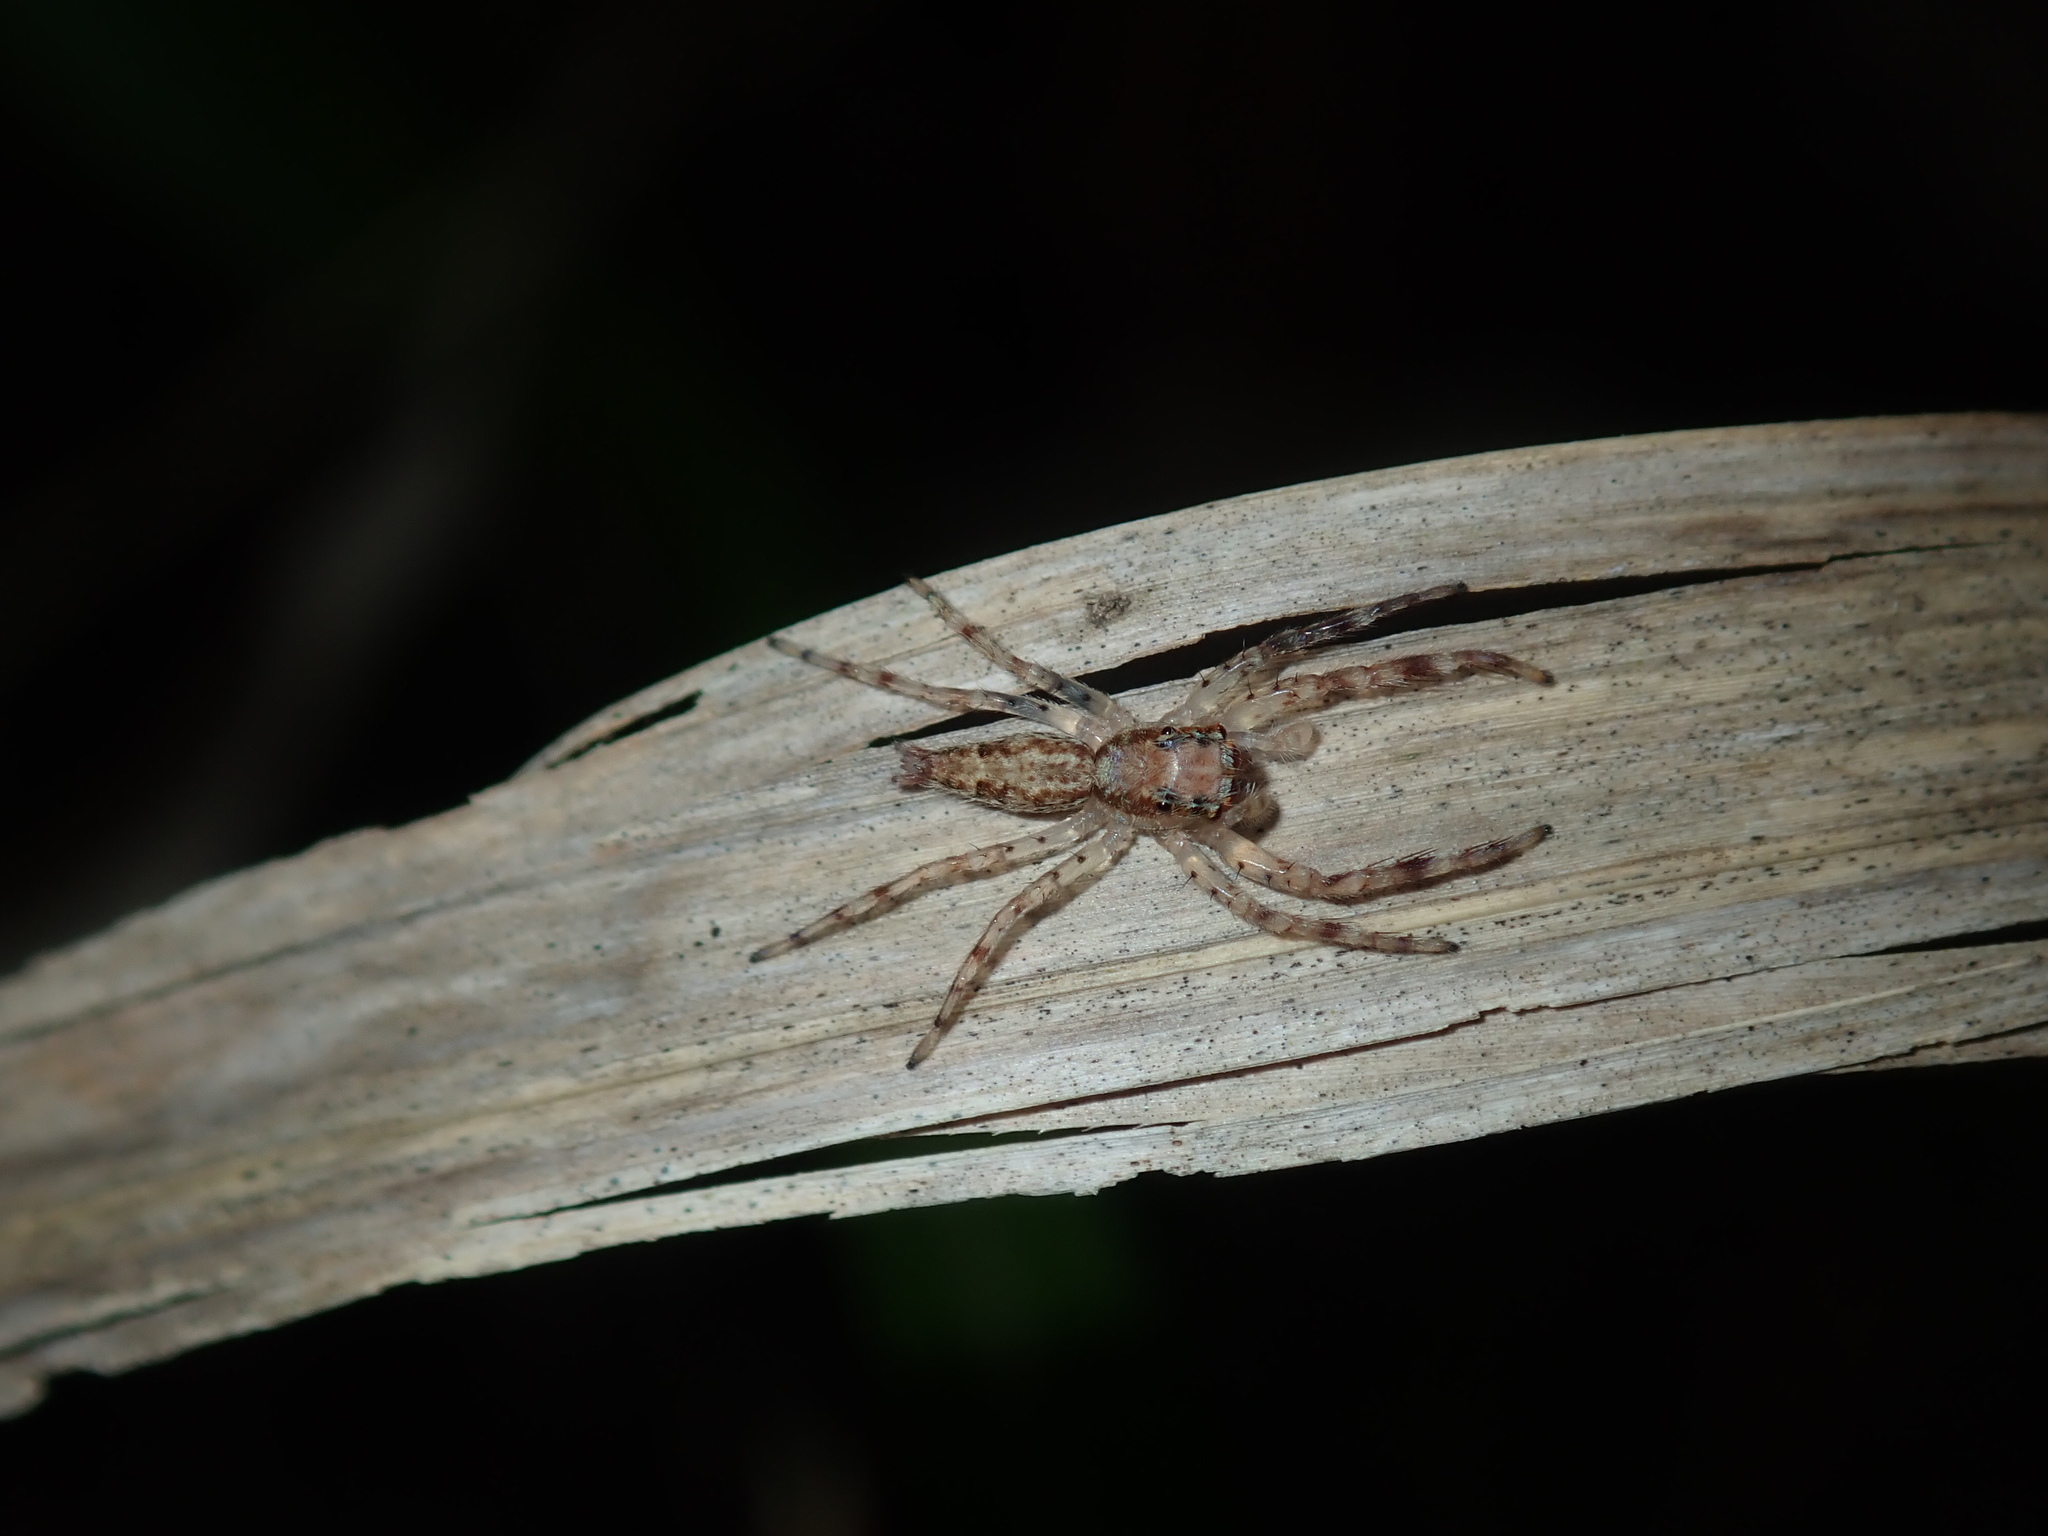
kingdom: Animalia
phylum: Arthropoda
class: Arachnida
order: Araneae
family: Salticidae
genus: Helpis
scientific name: Helpis minitabunda
